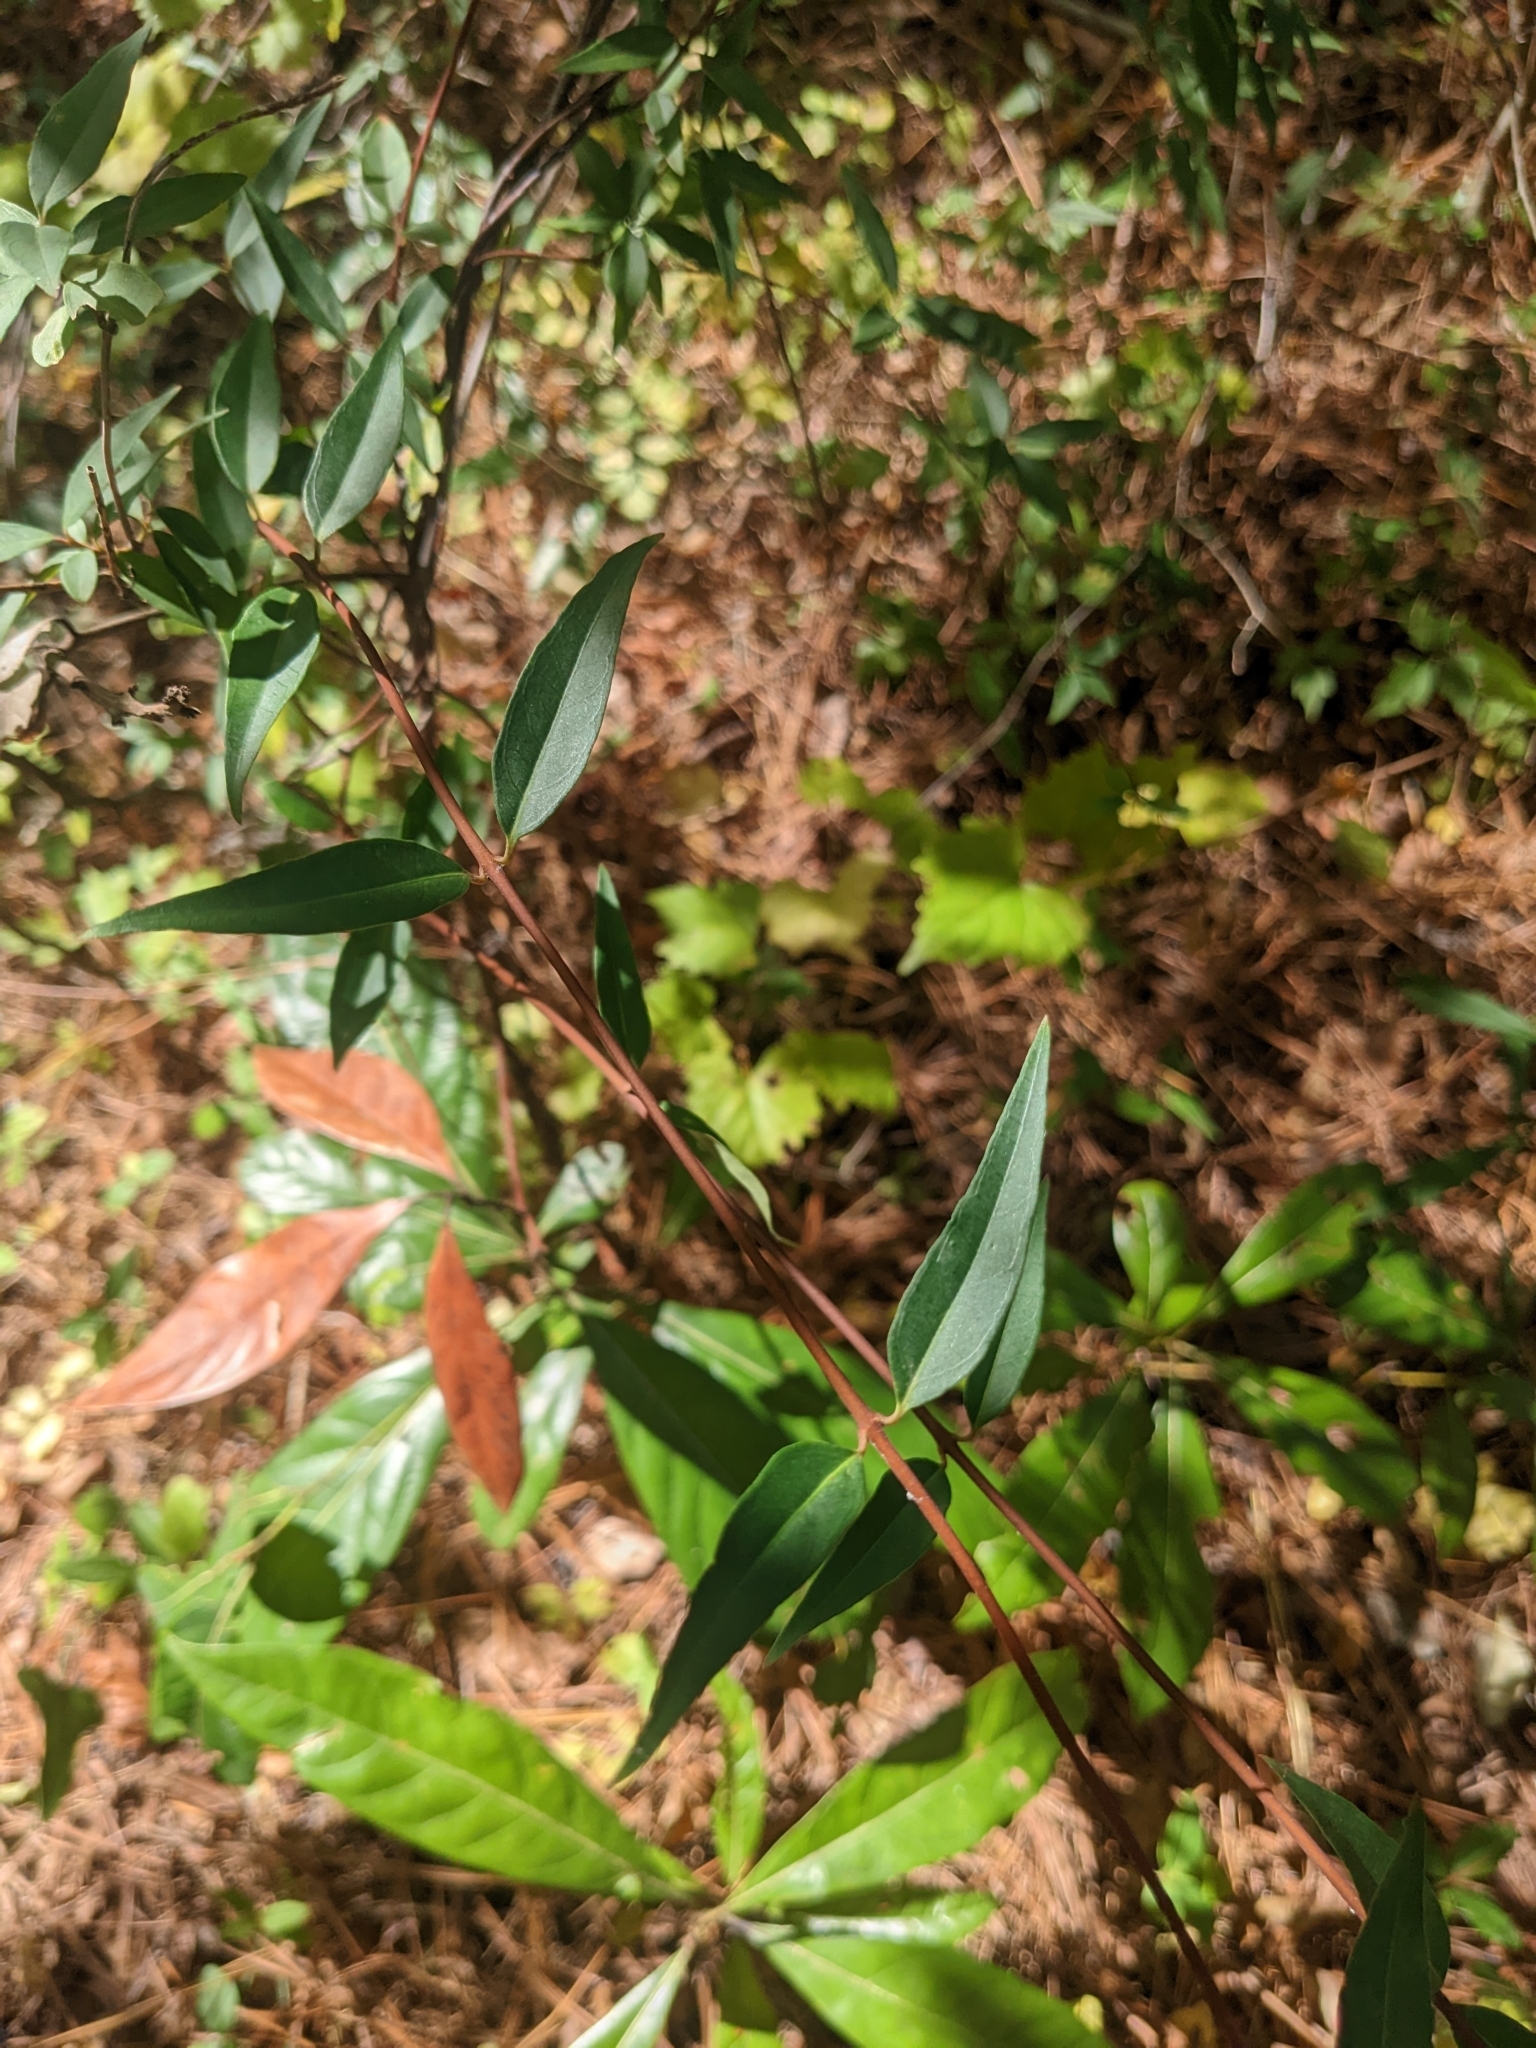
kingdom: Plantae
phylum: Tracheophyta
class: Magnoliopsida
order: Gentianales
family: Gelsemiaceae
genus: Gelsemium
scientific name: Gelsemium sempervirens
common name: Carolina-jasmine
